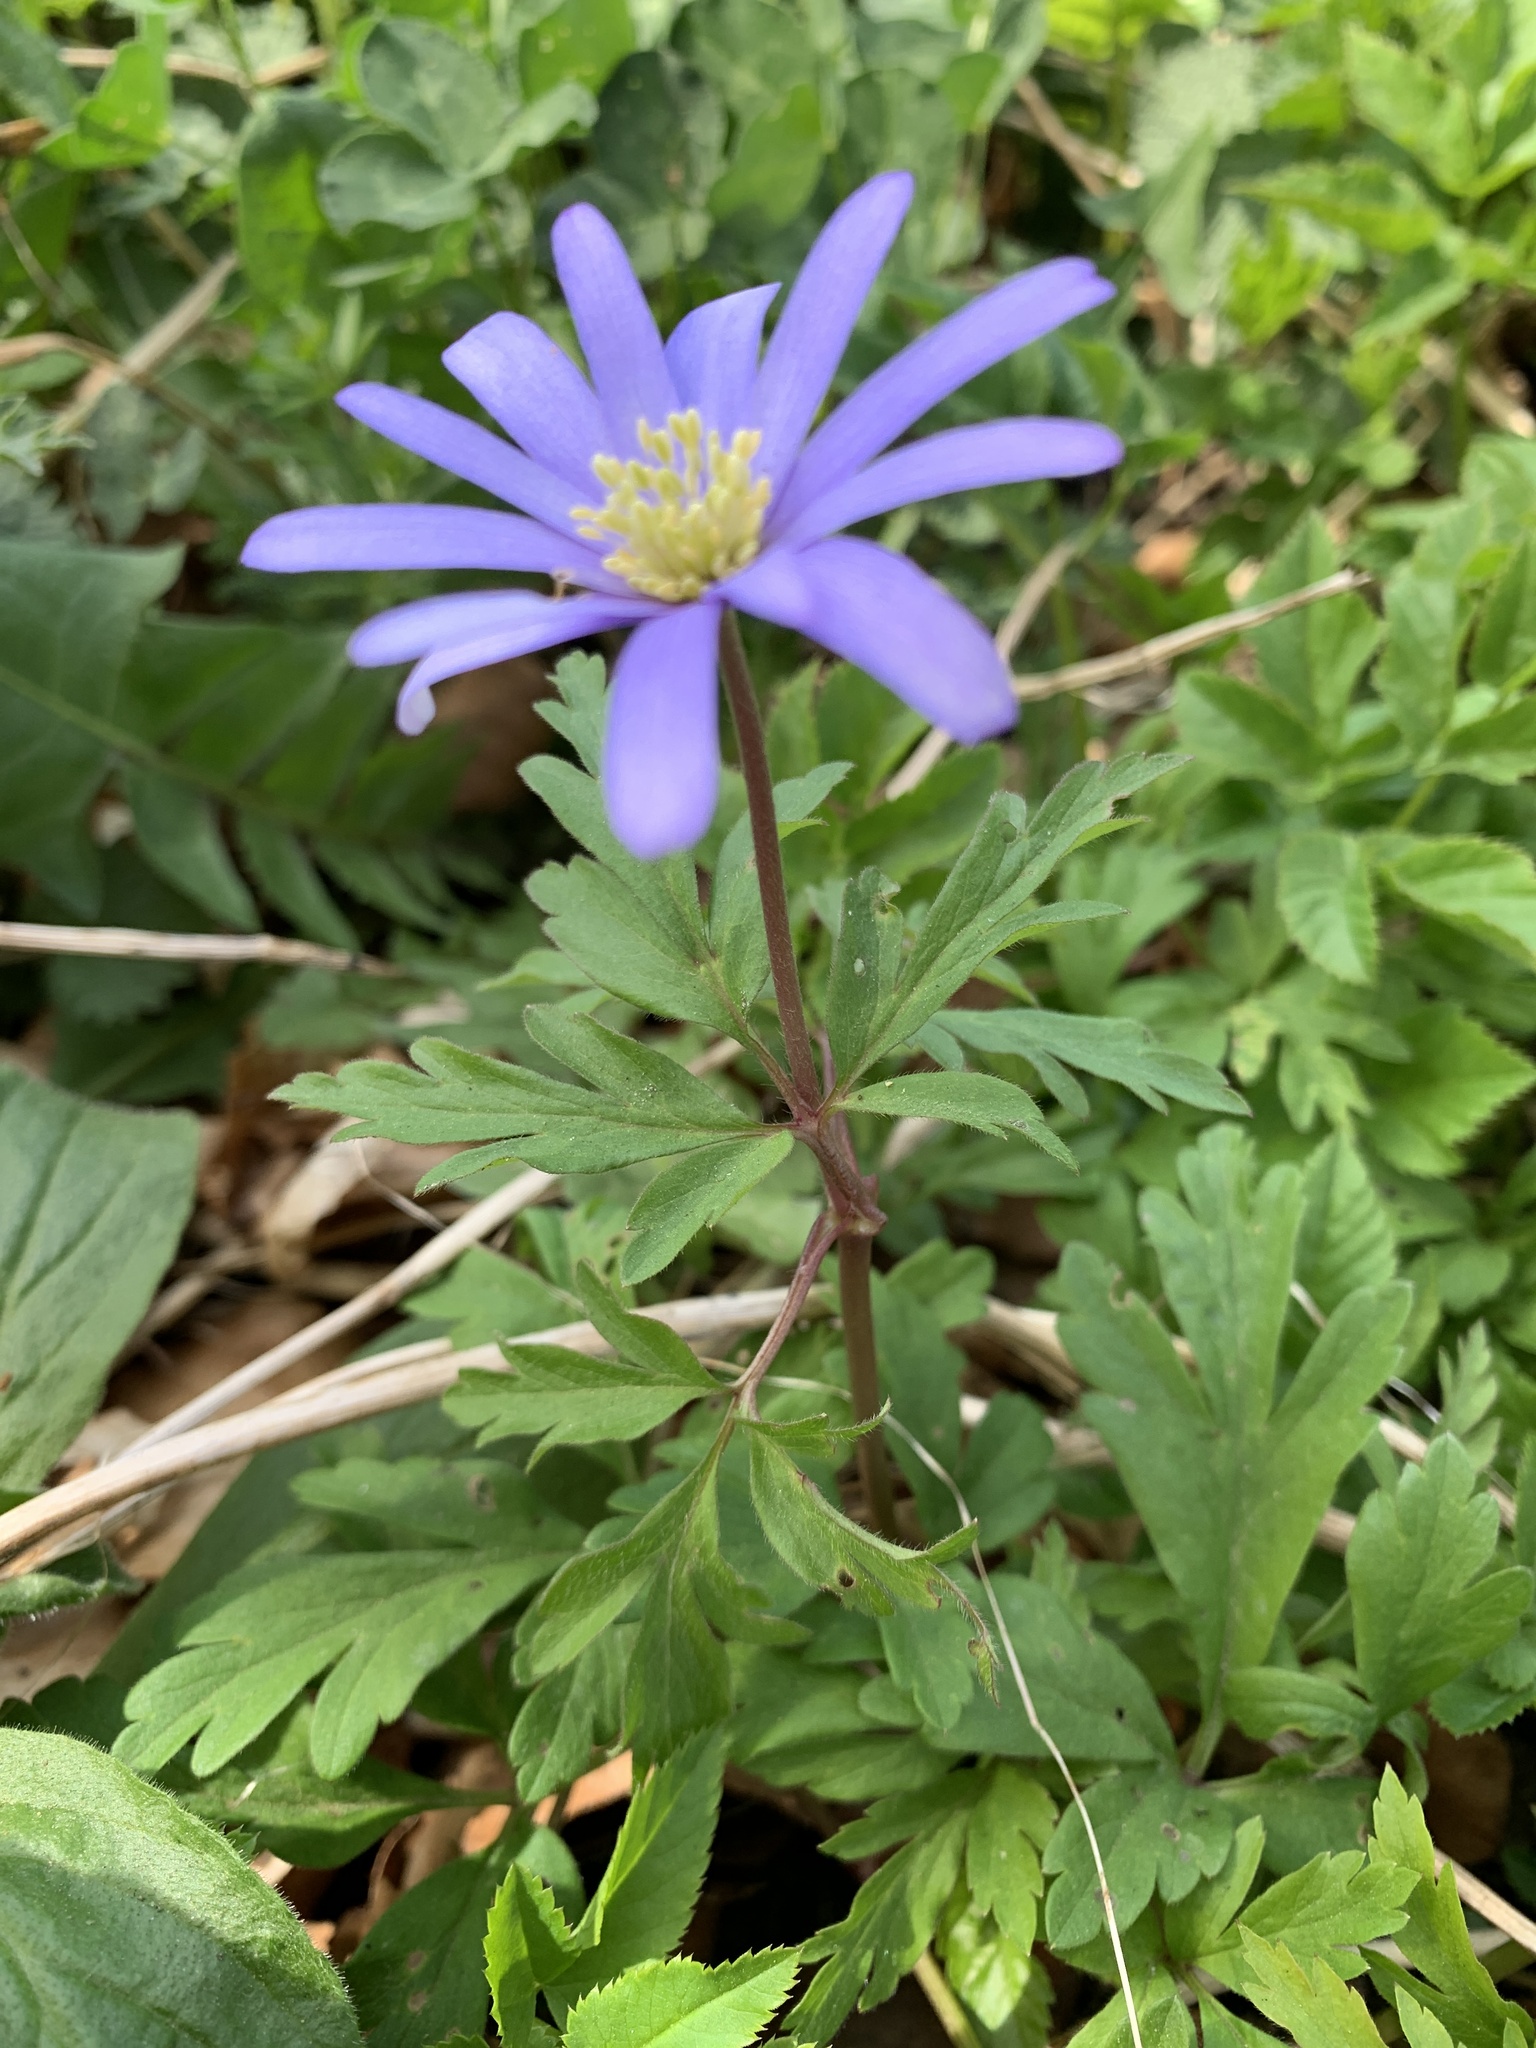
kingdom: Plantae
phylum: Tracheophyta
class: Magnoliopsida
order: Ranunculales
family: Ranunculaceae
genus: Anemone
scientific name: Anemone apennina
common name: Blue anemone
